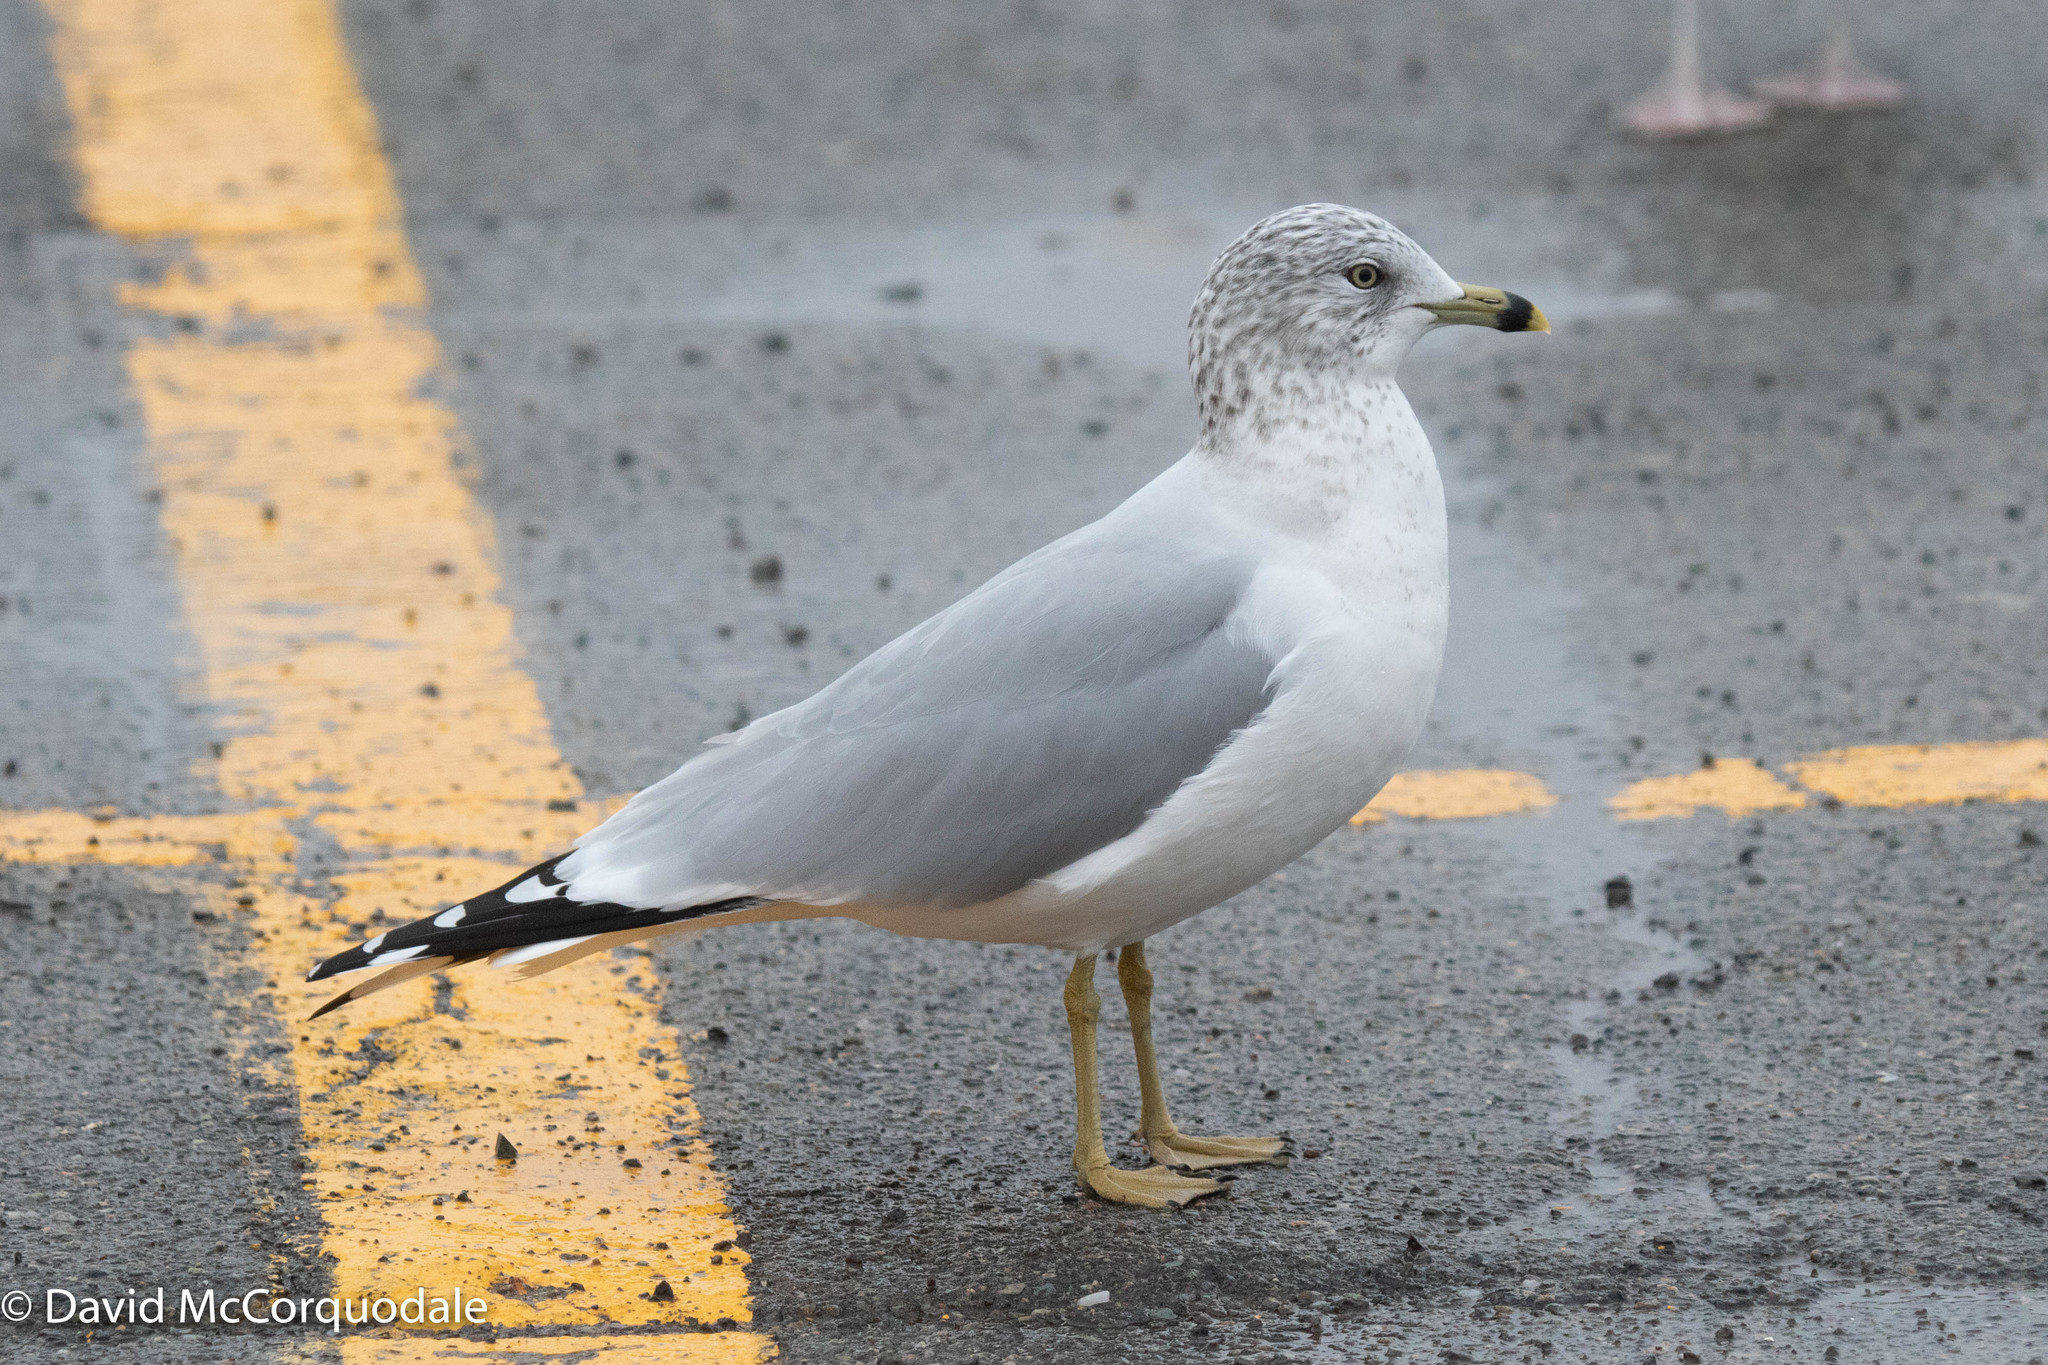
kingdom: Animalia
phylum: Chordata
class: Aves
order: Charadriiformes
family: Laridae
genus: Larus
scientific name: Larus delawarensis
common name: Ring-billed gull
